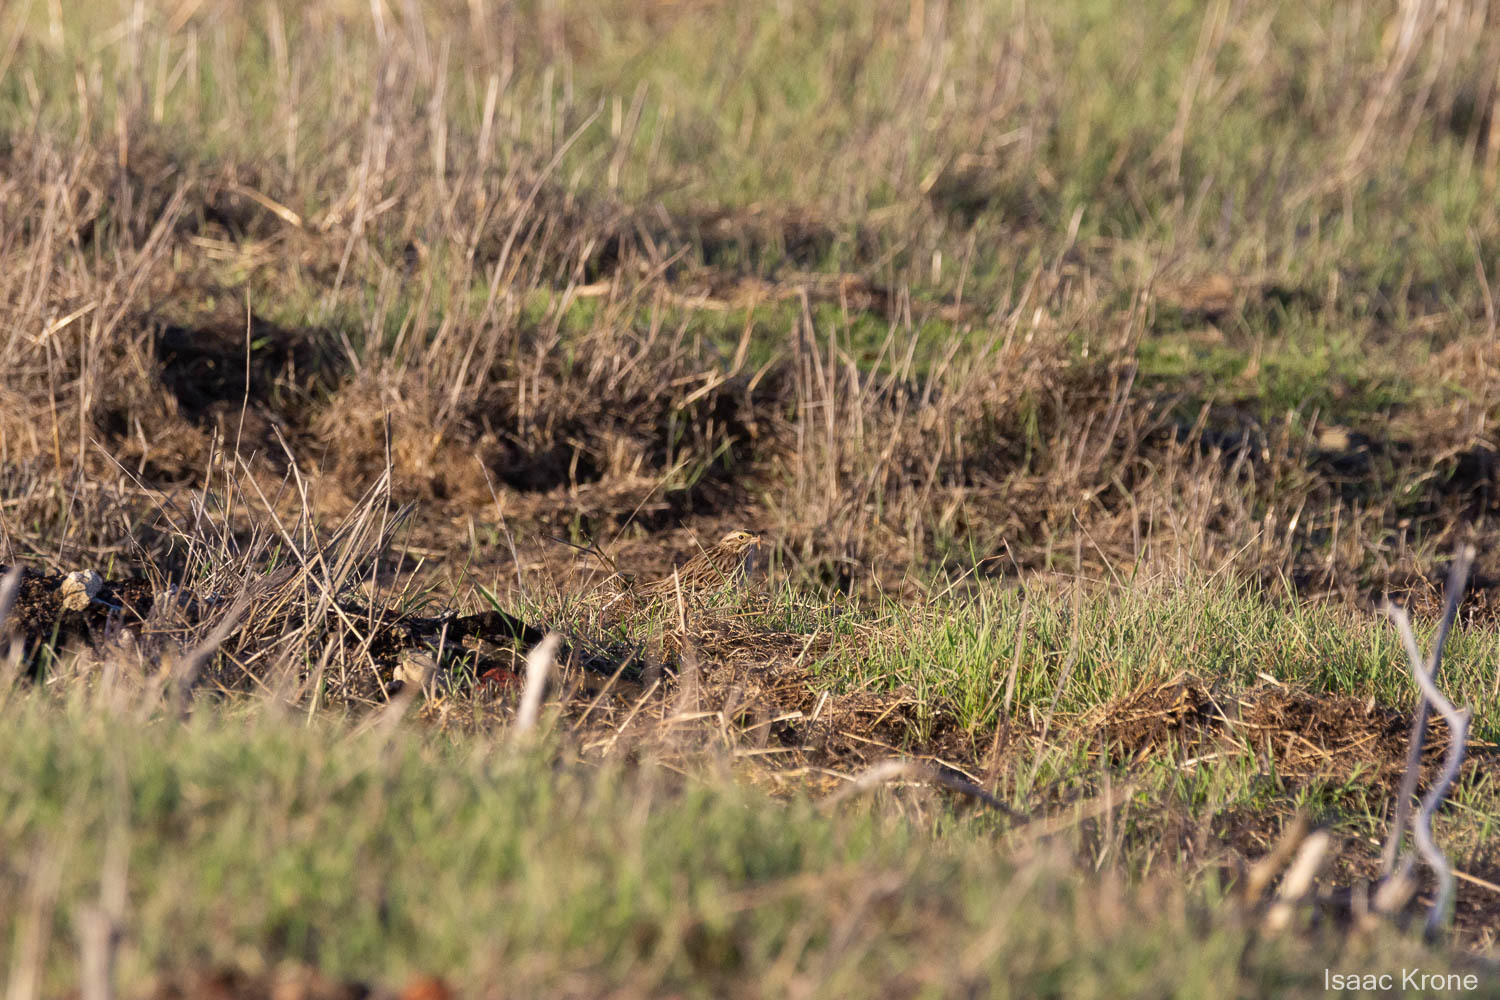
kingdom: Animalia
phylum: Chordata
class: Aves
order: Passeriformes
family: Passerellidae
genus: Passerculus
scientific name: Passerculus sandwichensis
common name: Savannah sparrow
